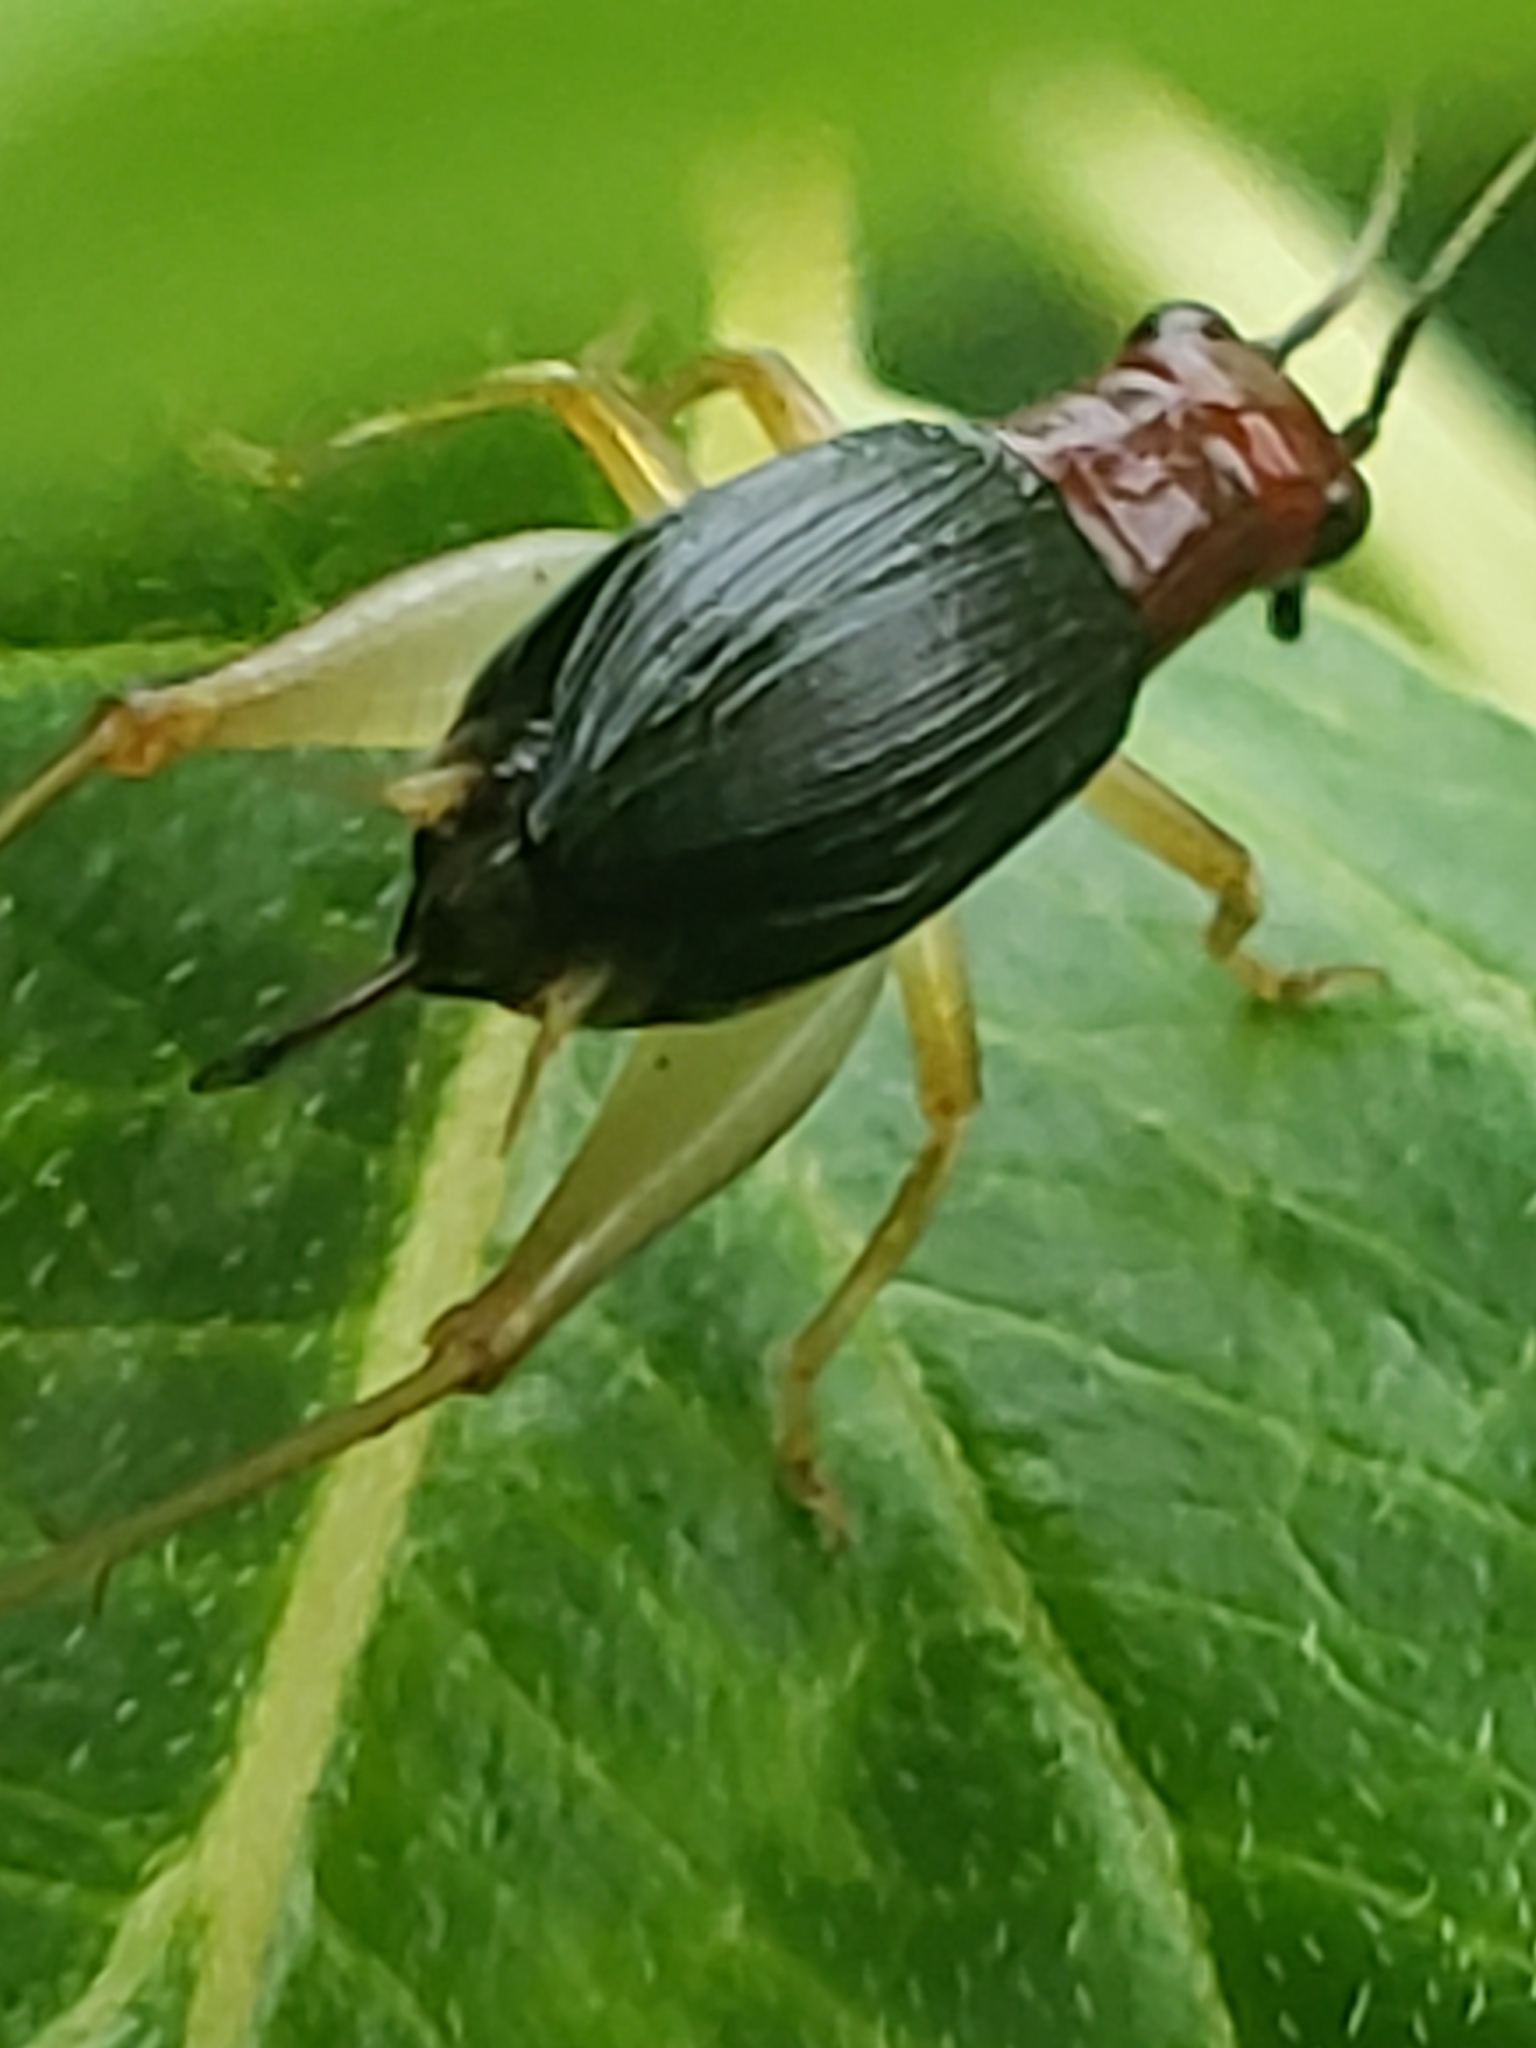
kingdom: Animalia
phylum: Arthropoda
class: Insecta
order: Orthoptera
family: Trigonidiidae
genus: Phyllopalpus
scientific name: Phyllopalpus pulchellus
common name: Handsome trig
